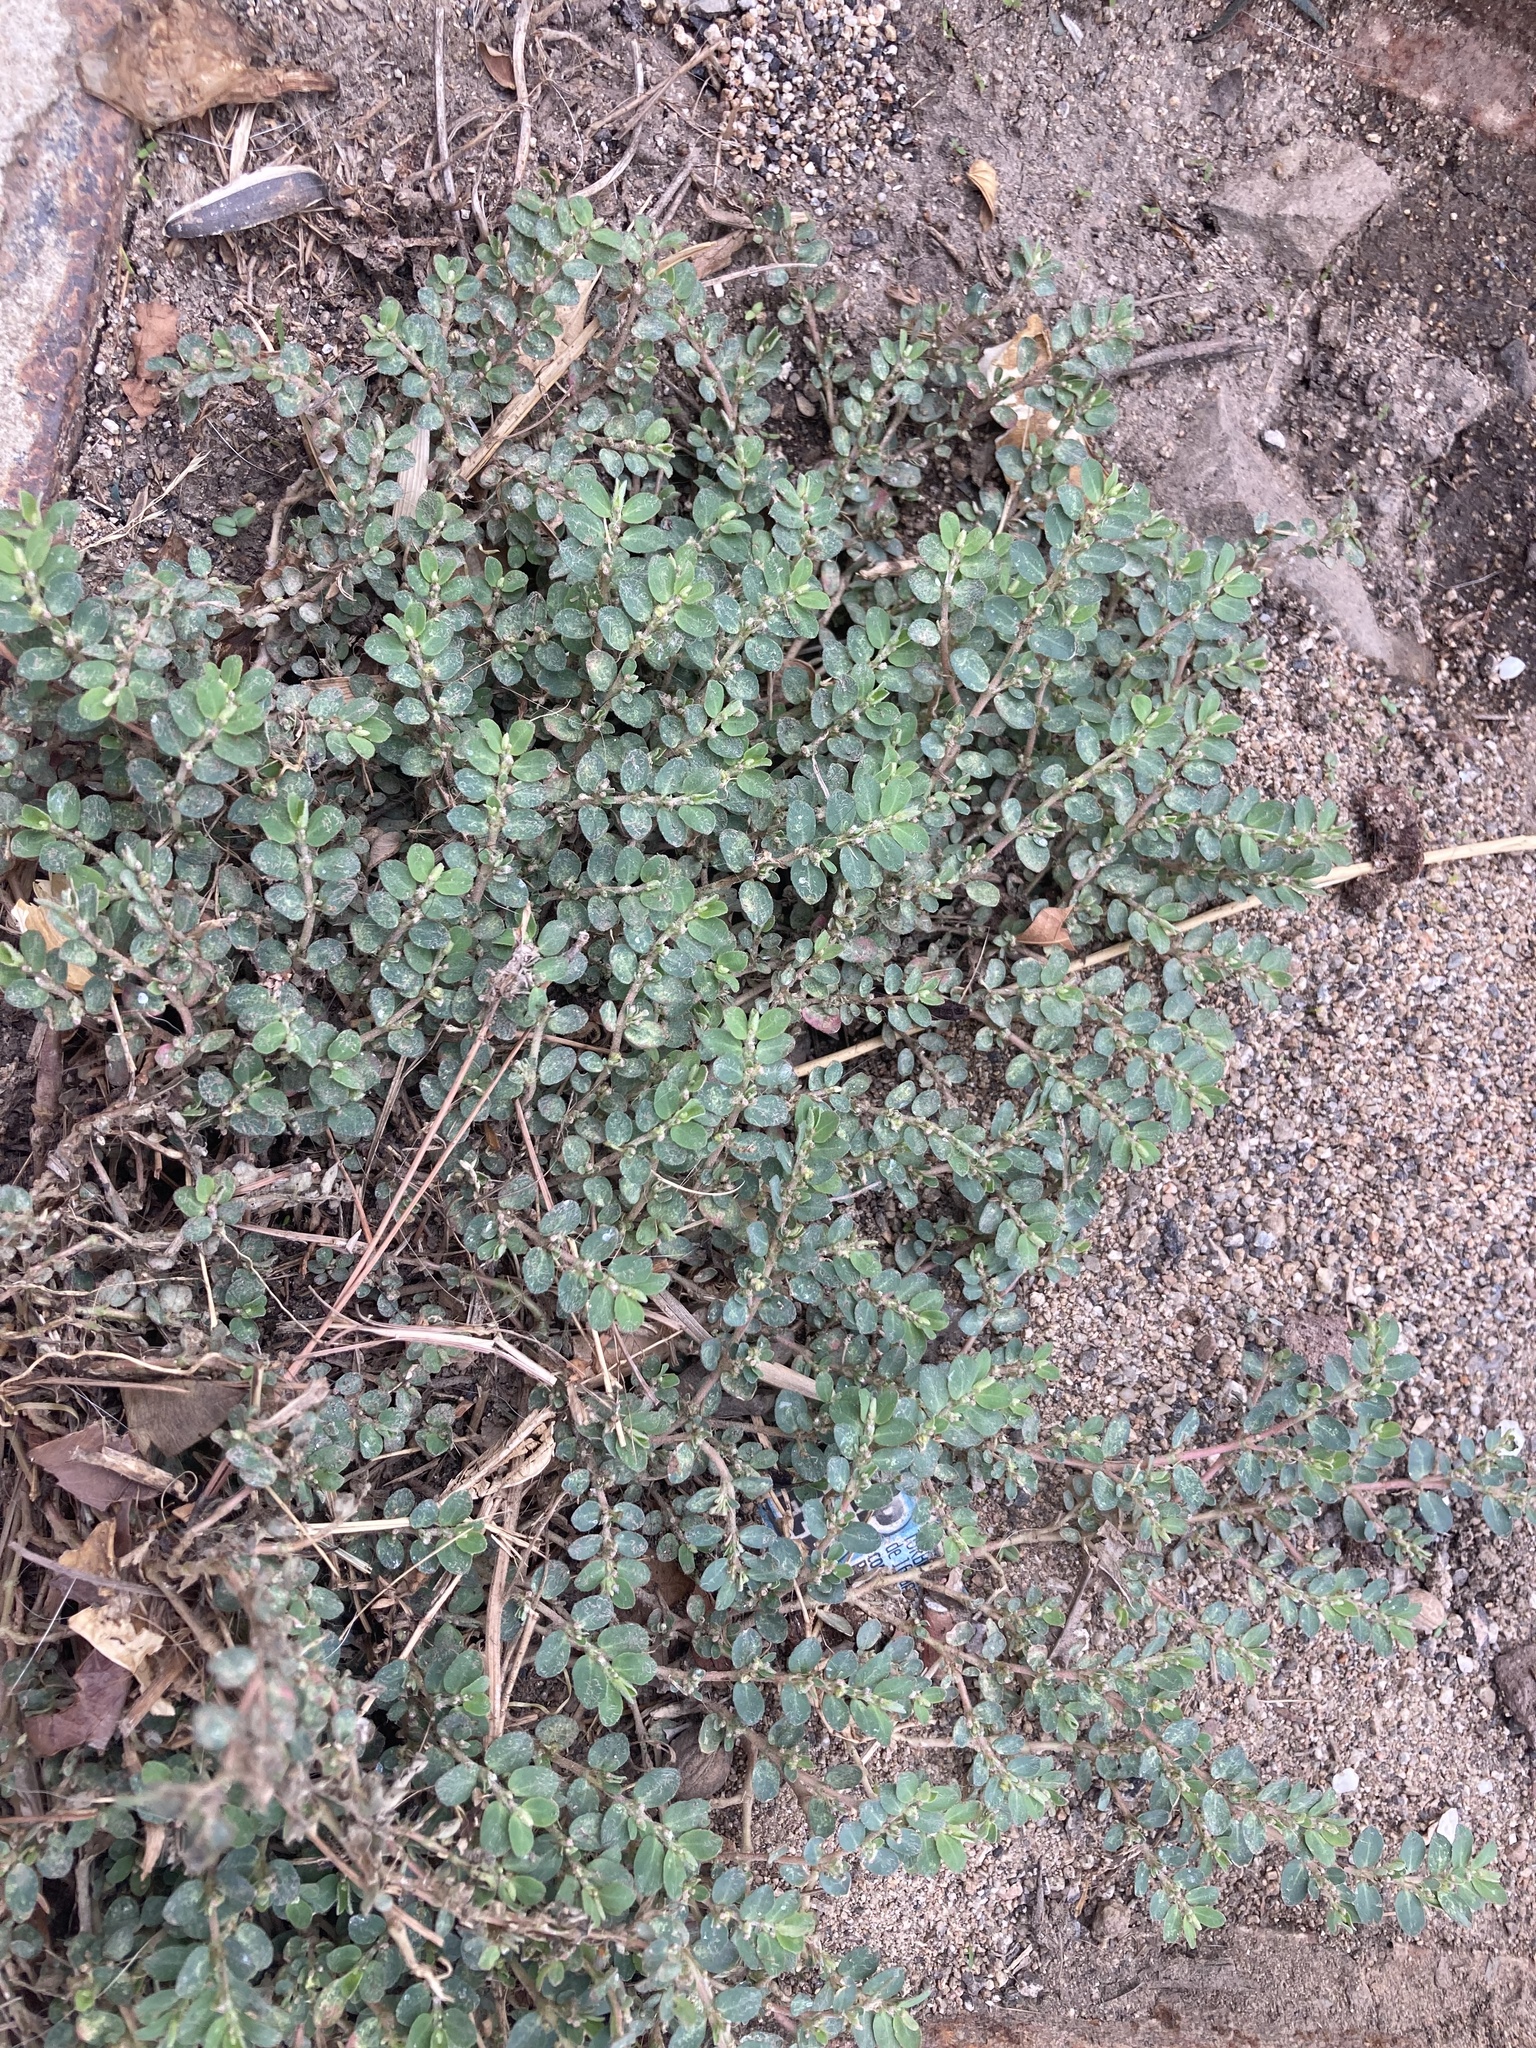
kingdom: Plantae
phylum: Tracheophyta
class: Magnoliopsida
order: Malpighiales
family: Euphorbiaceae
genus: Euphorbia
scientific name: Euphorbia prostrata
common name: Prostrate sandmat
